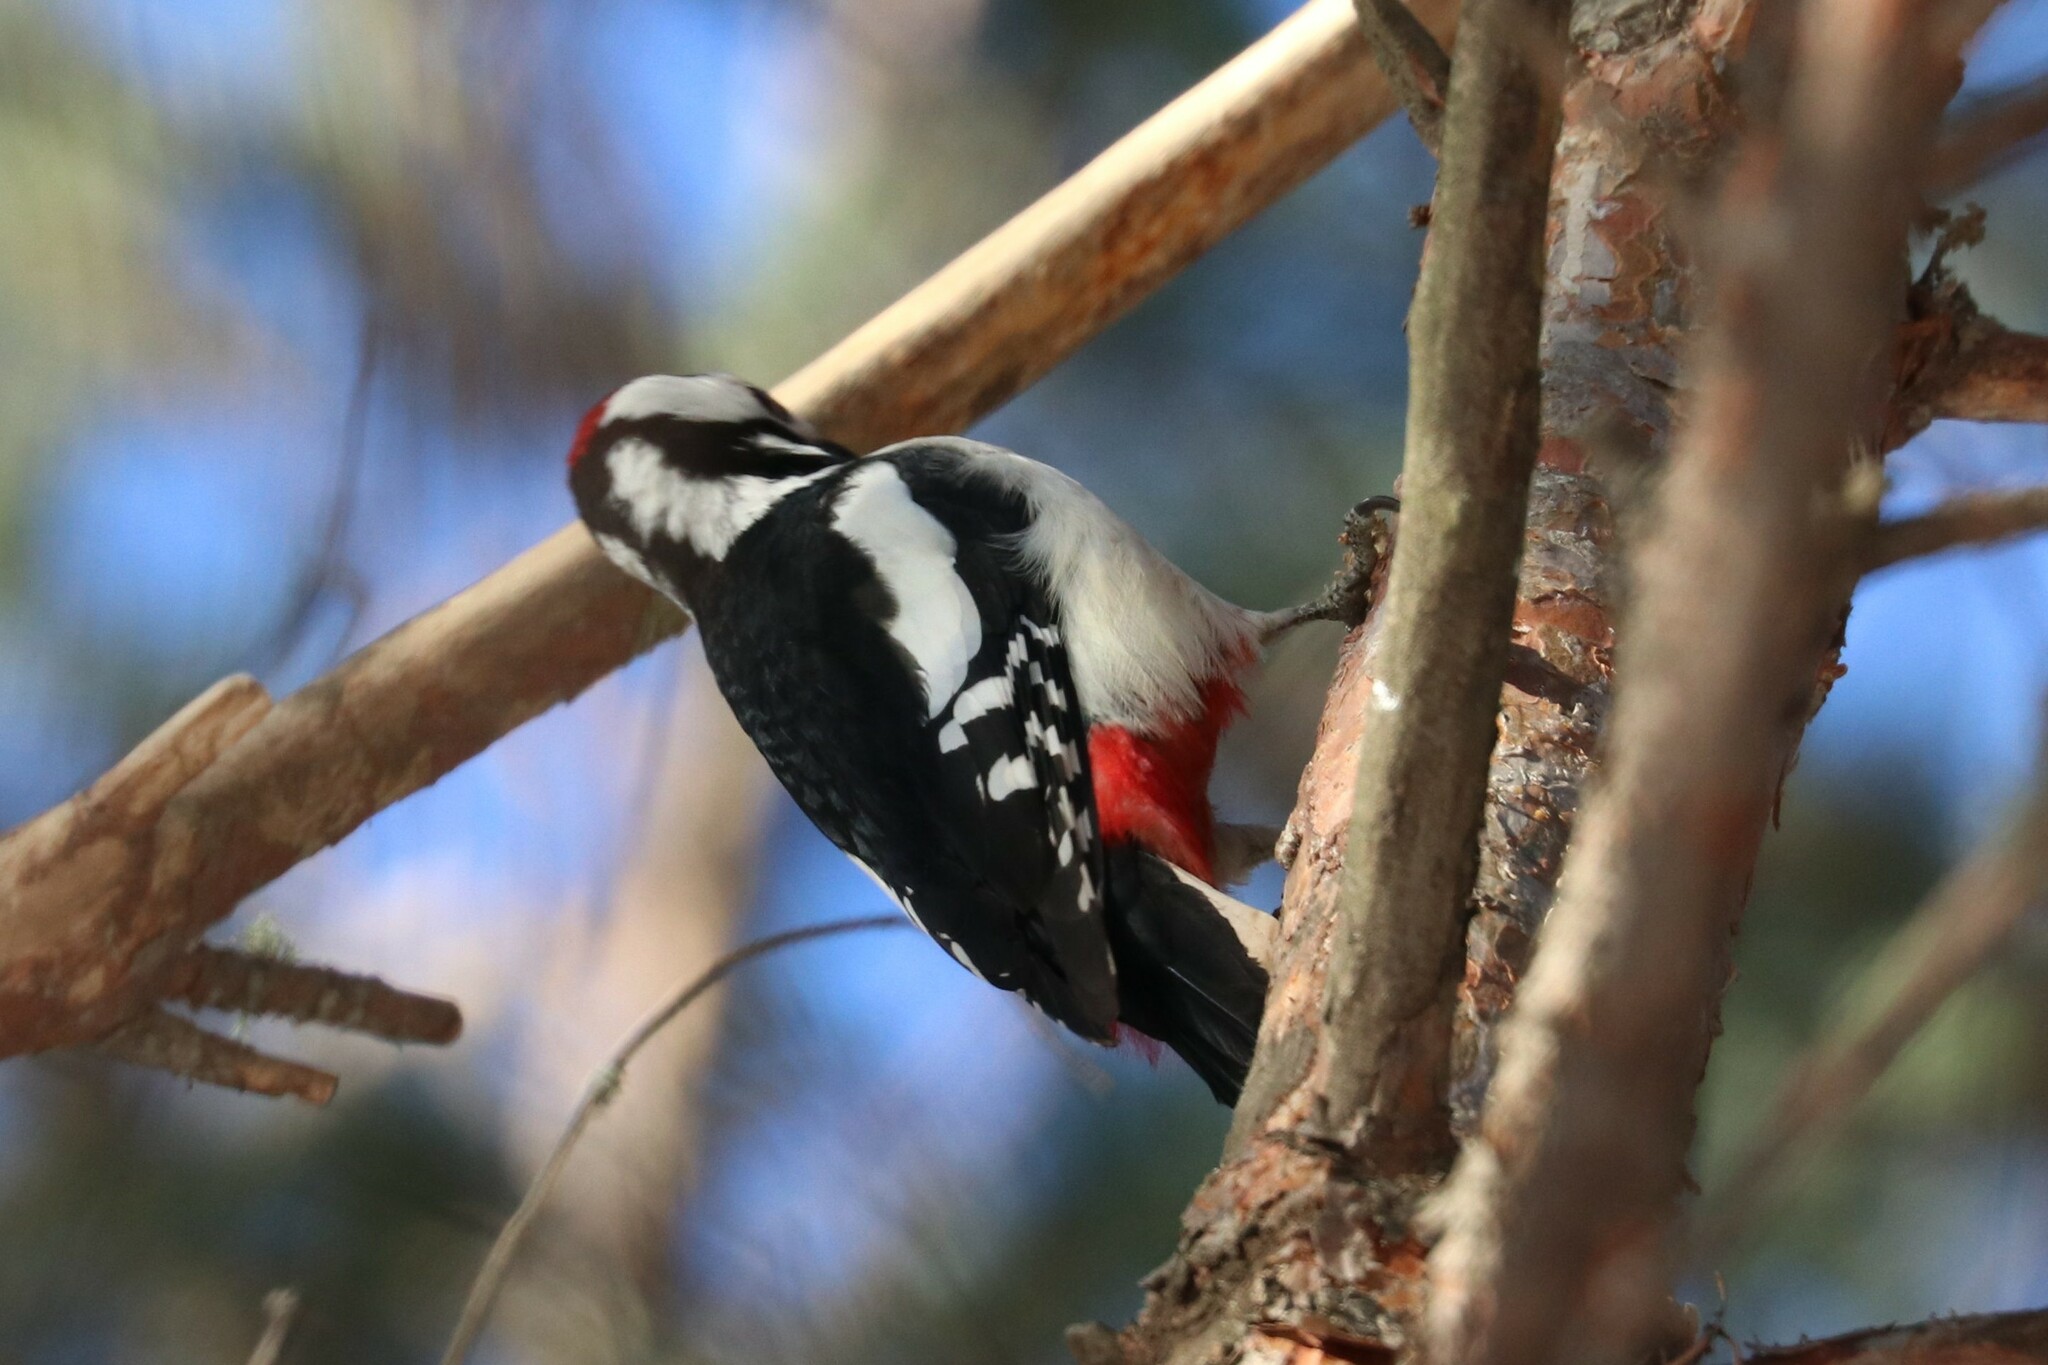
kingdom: Animalia
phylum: Chordata
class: Aves
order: Piciformes
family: Picidae
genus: Dendrocopos
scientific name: Dendrocopos major
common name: Great spotted woodpecker
